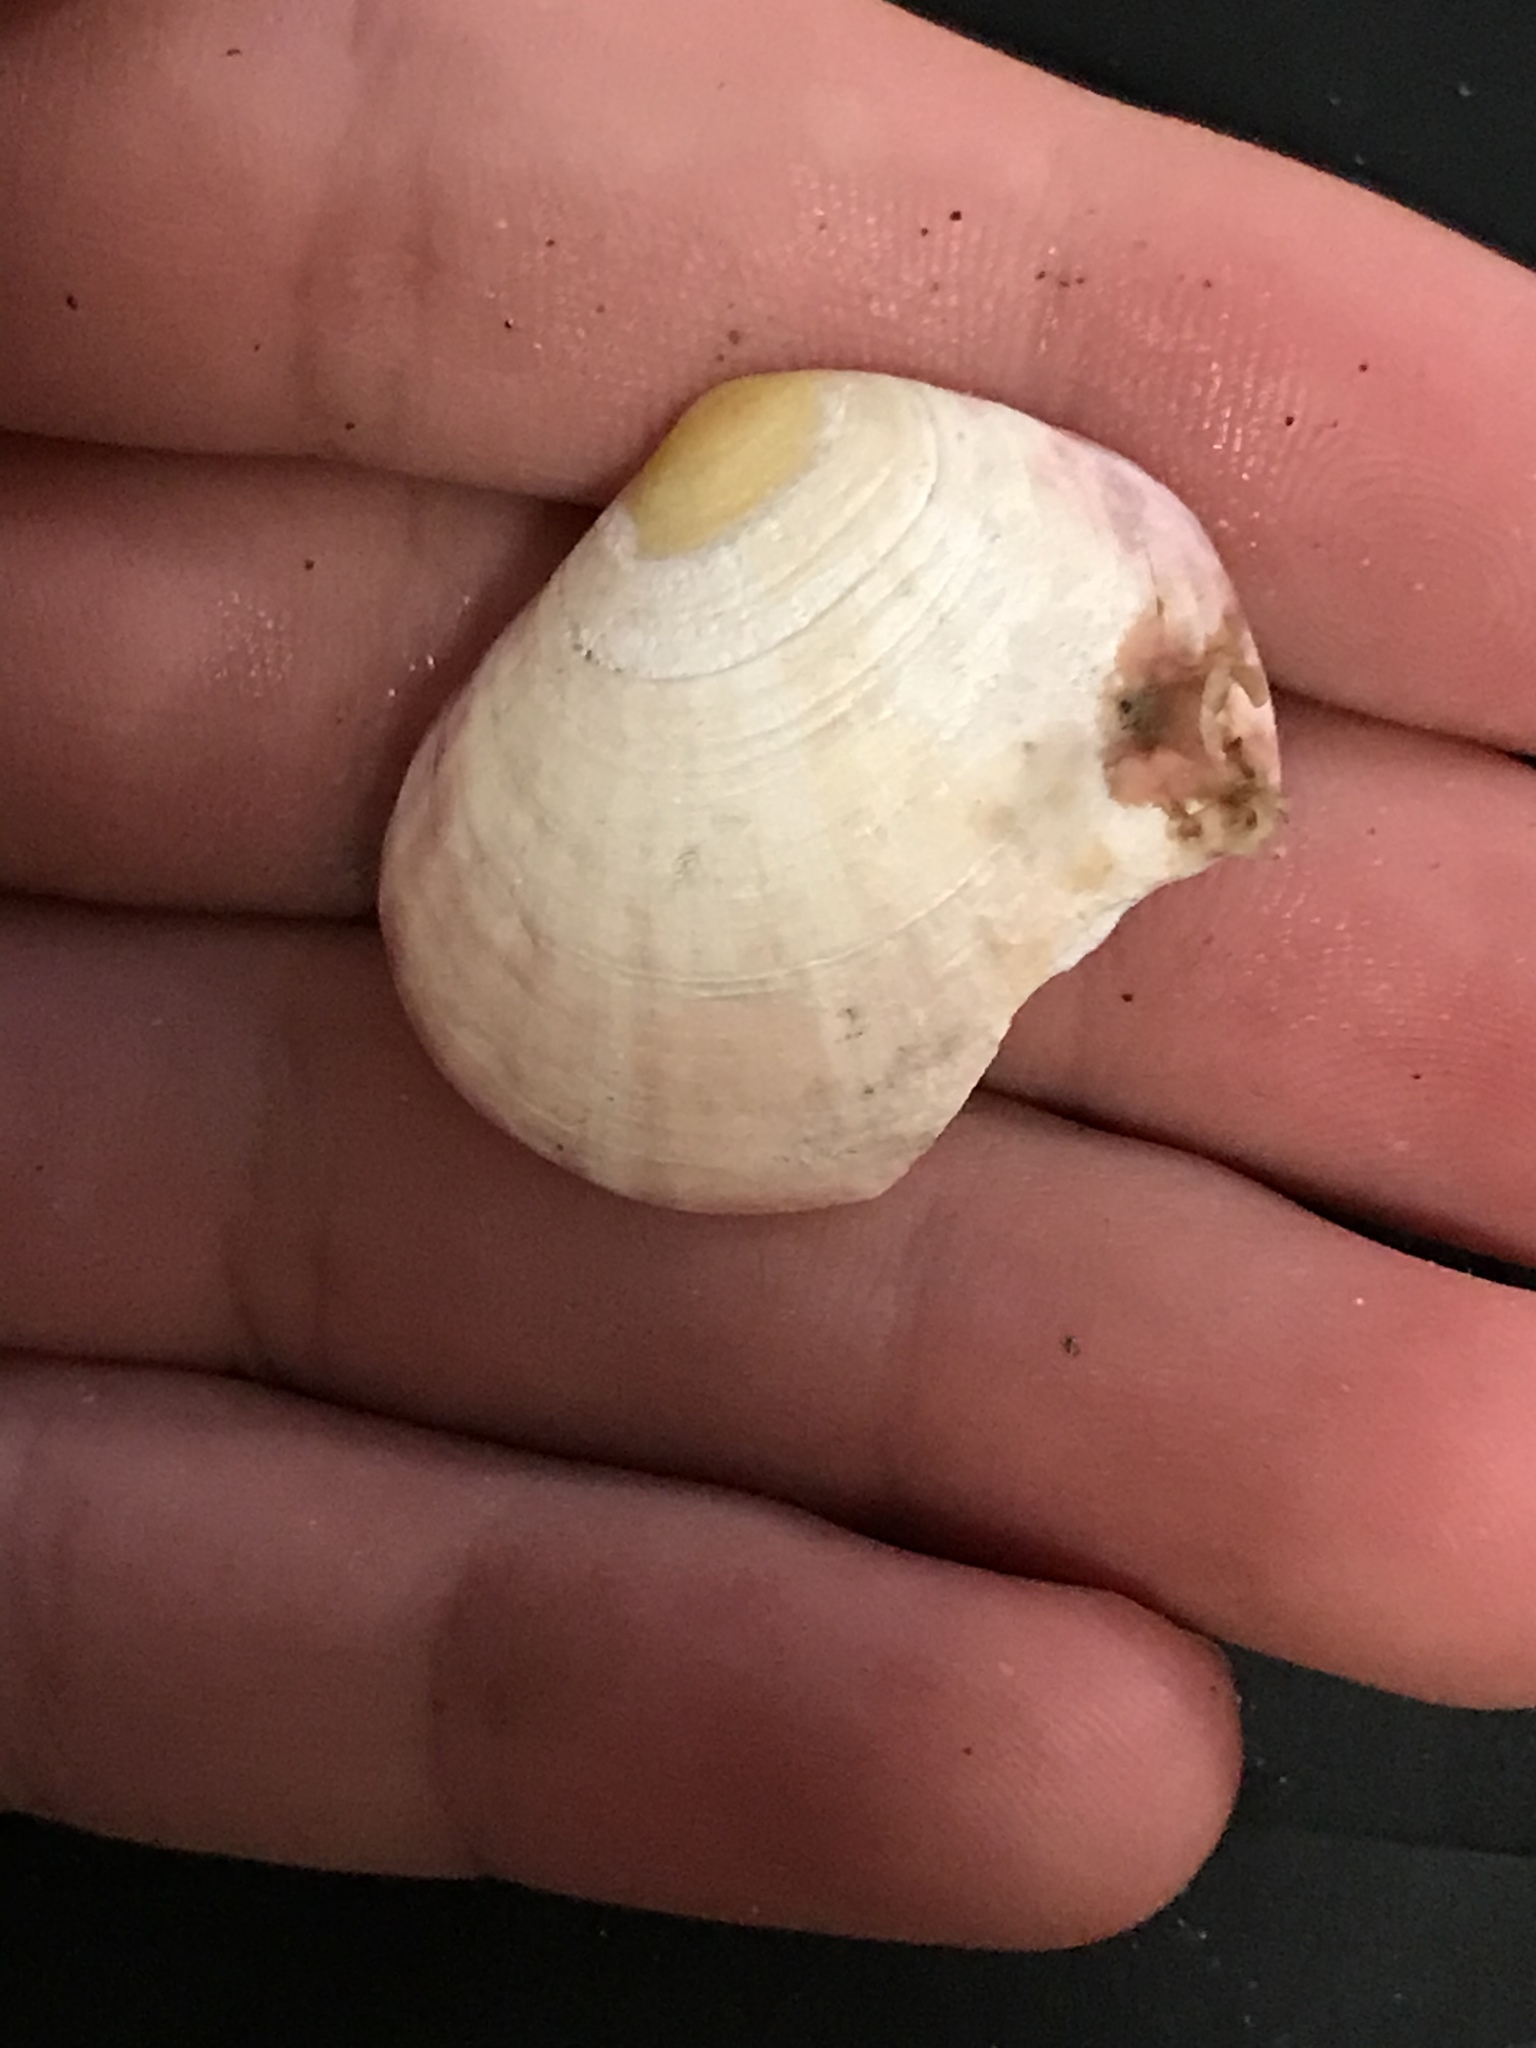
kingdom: Animalia
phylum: Mollusca
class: Bivalvia
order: Cardiida
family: Semelidae
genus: Semele
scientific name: Semele rubropicta
